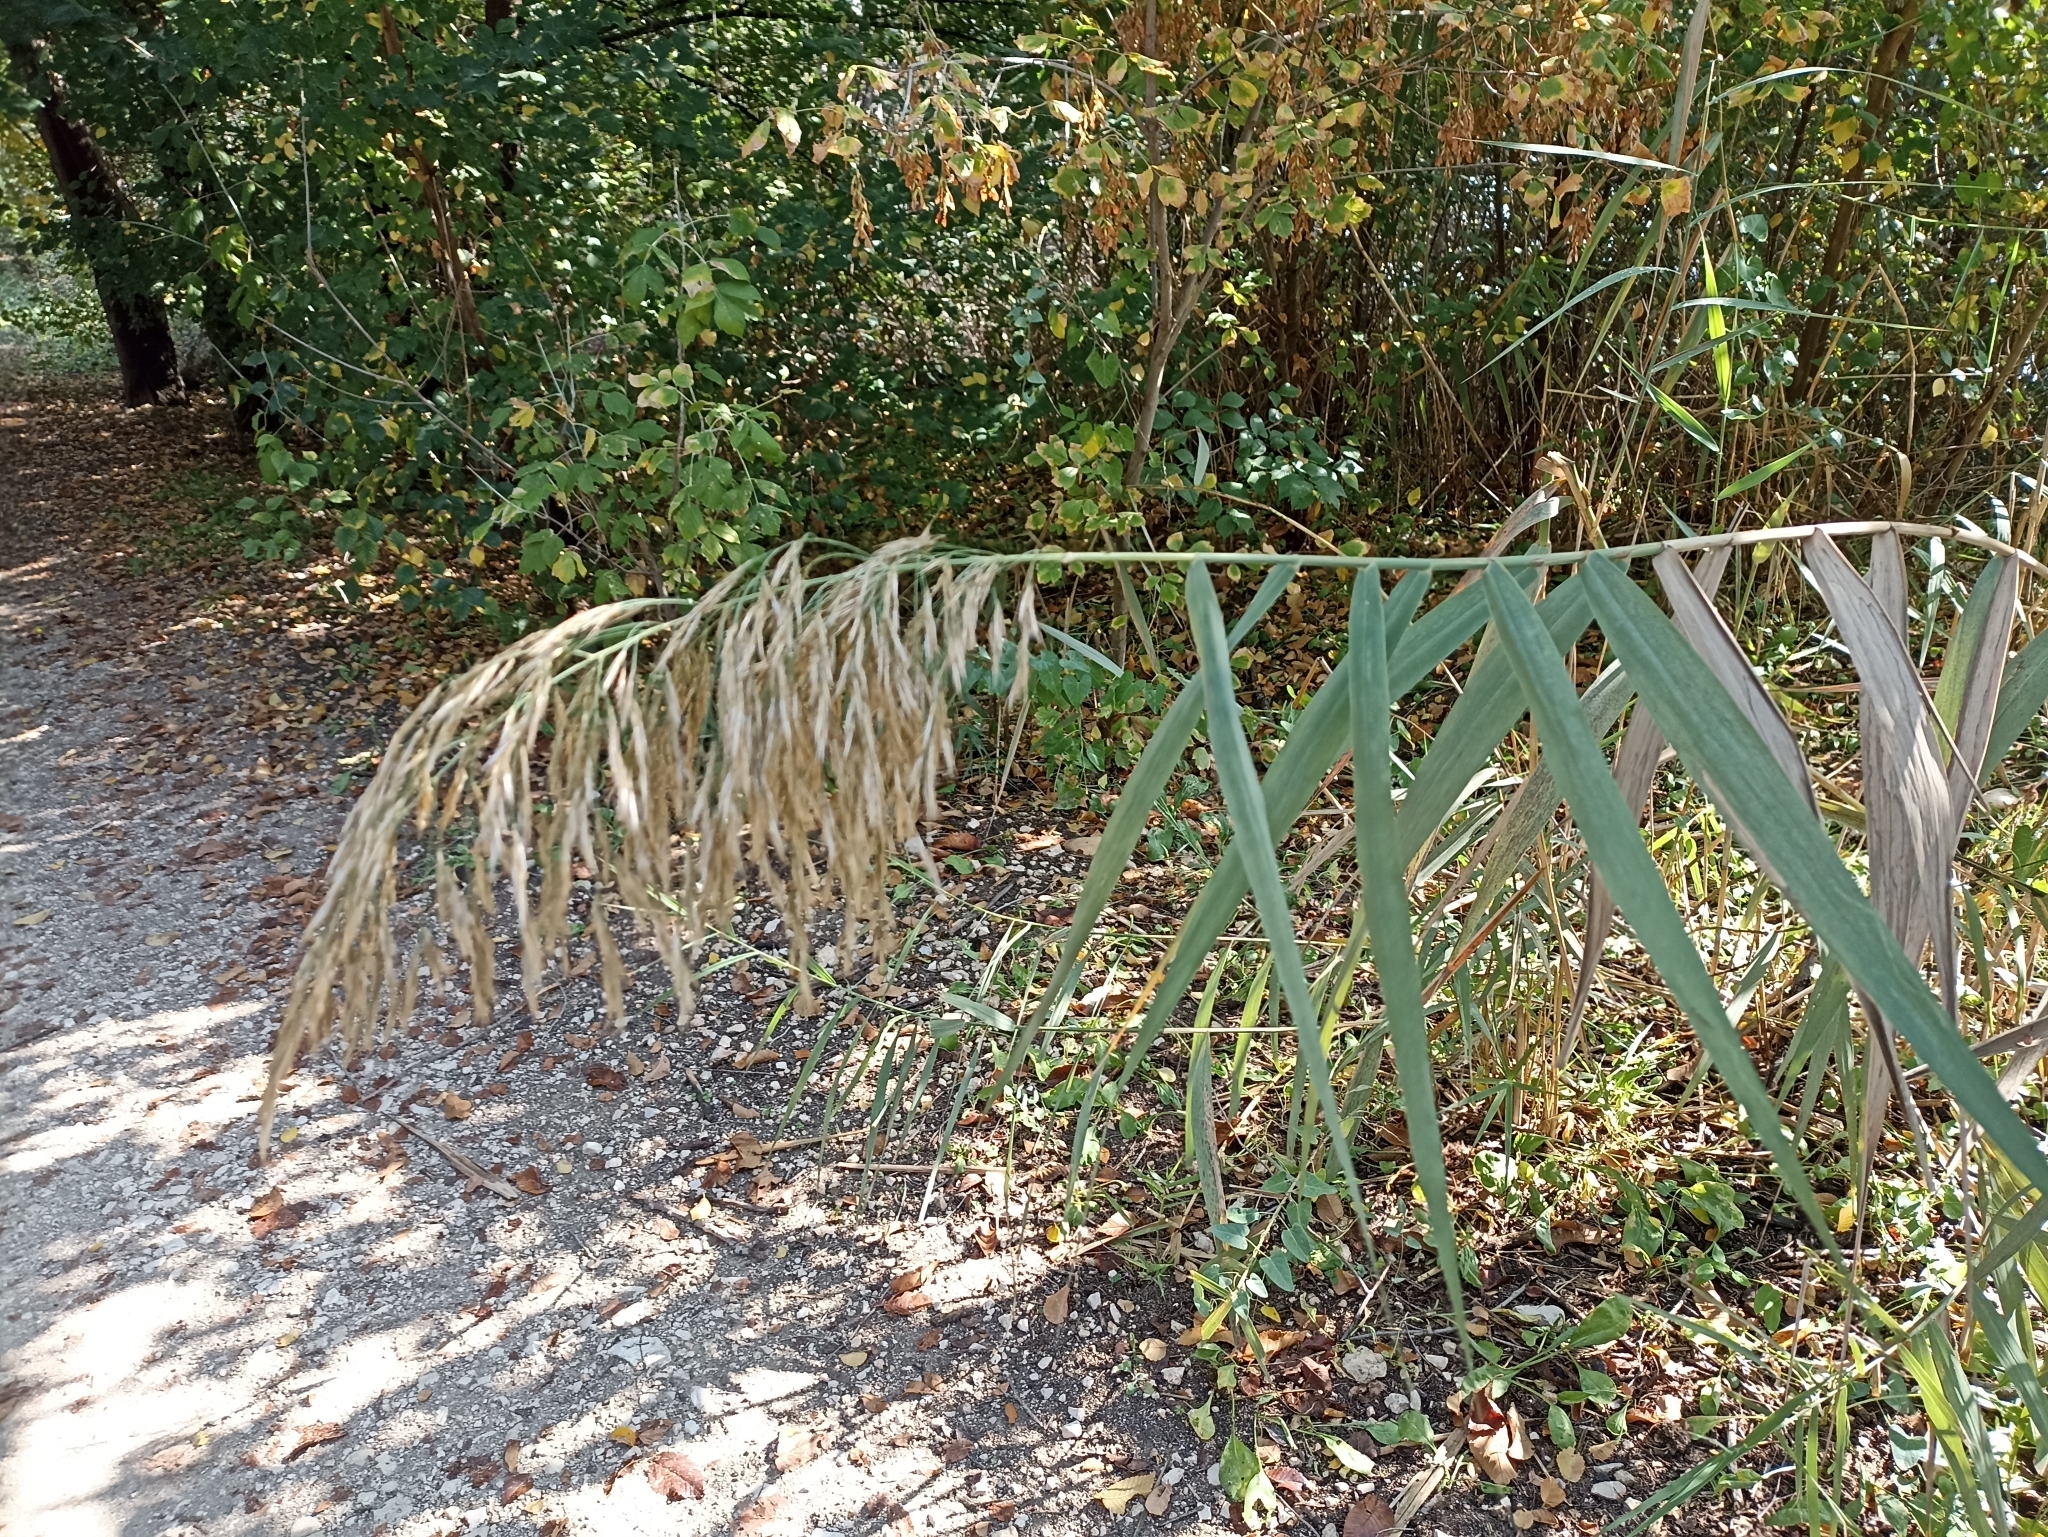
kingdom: Plantae
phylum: Tracheophyta
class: Liliopsida
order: Poales
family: Poaceae
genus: Arundo
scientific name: Arundo donax
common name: Giant reed
